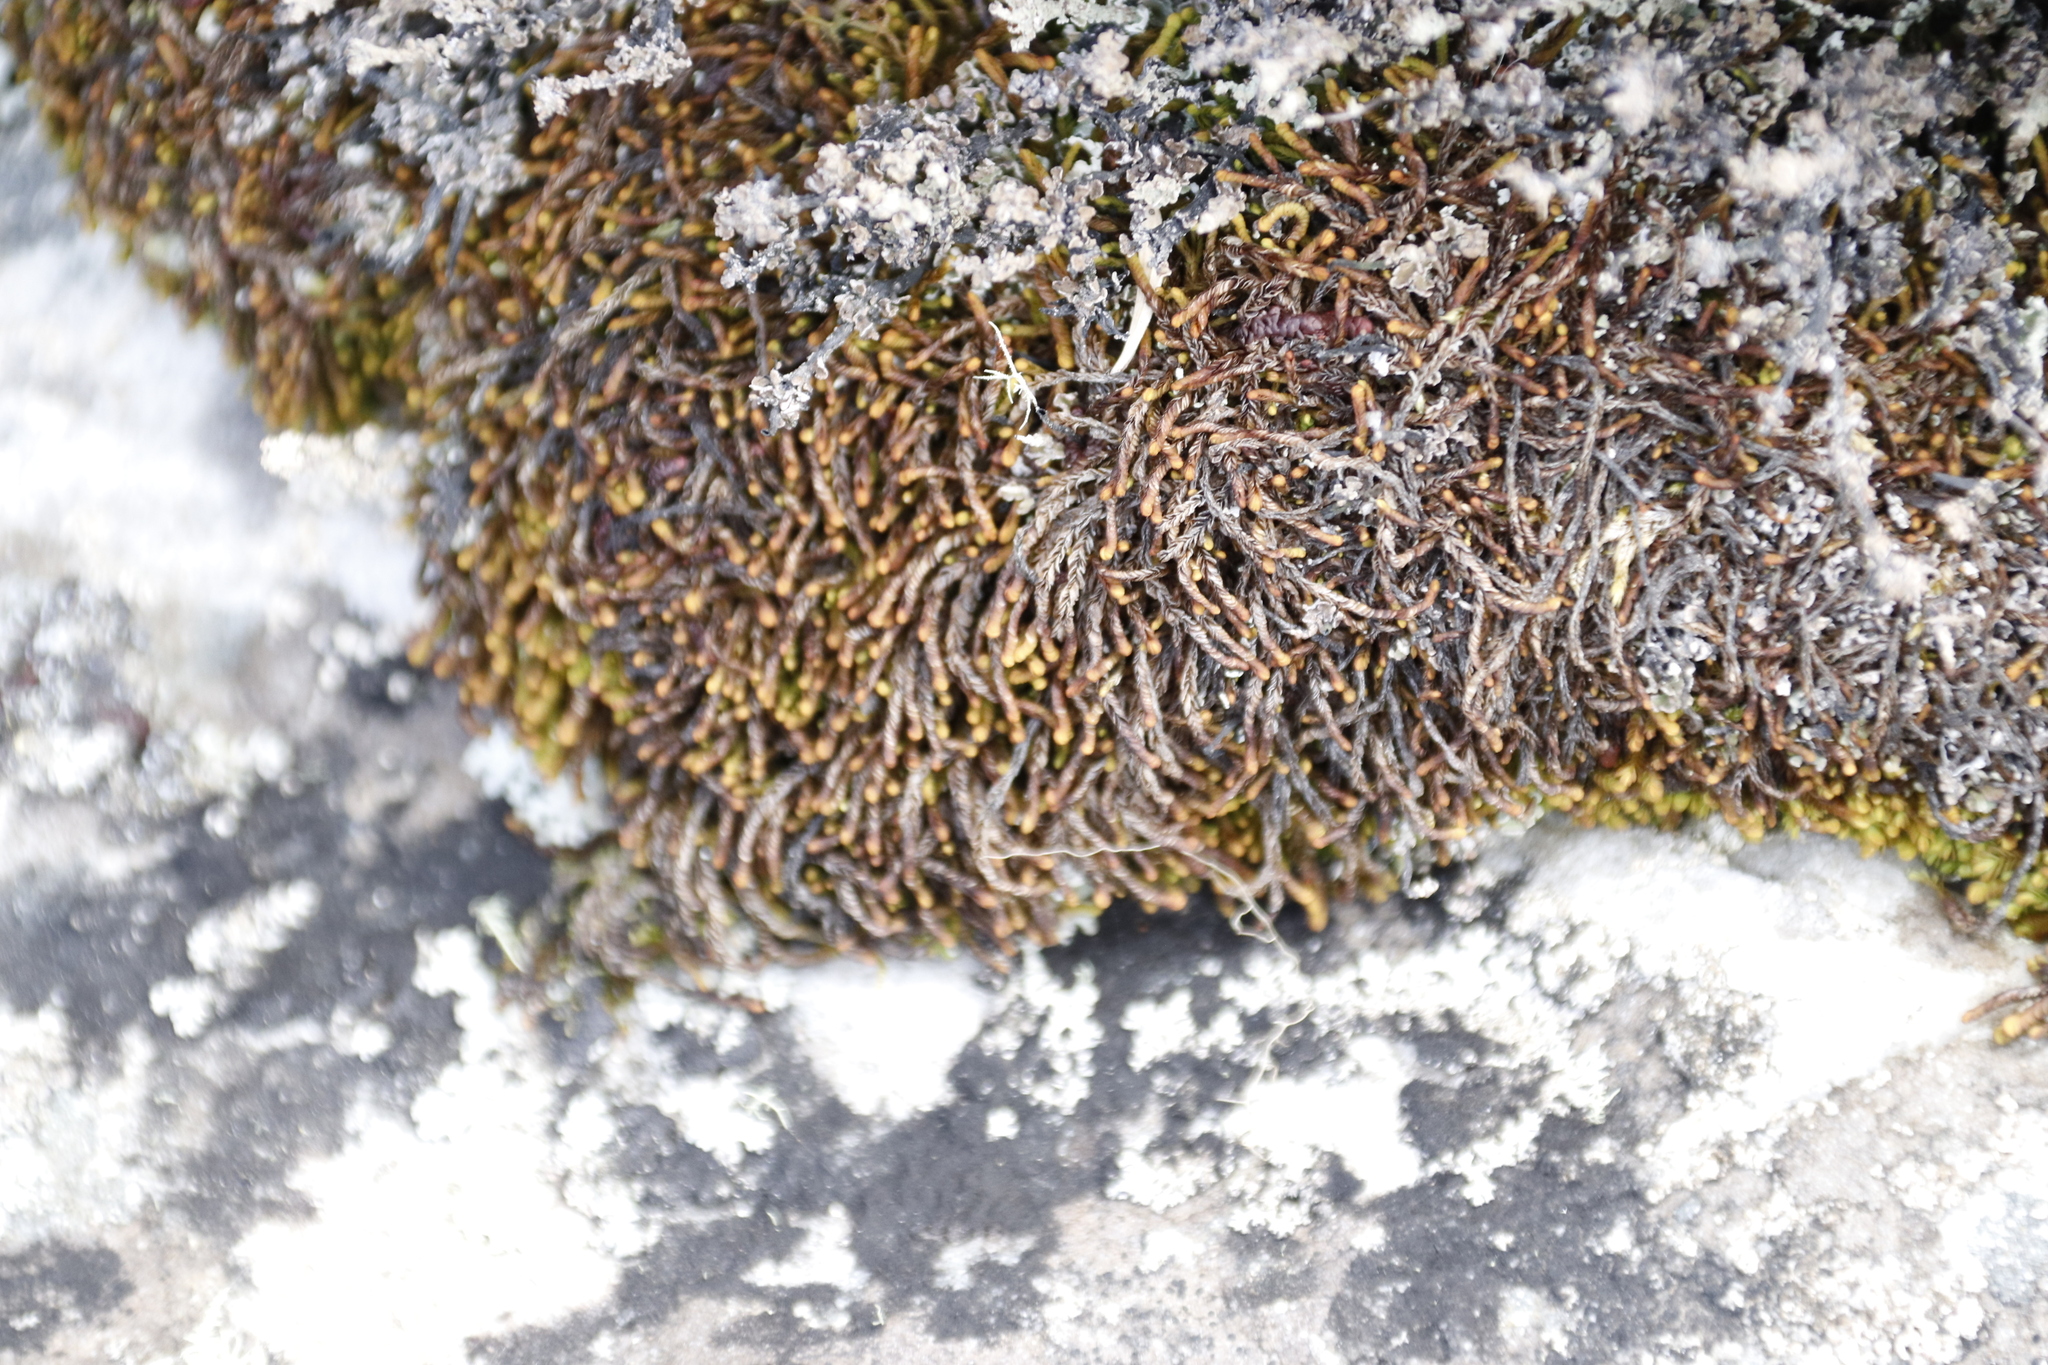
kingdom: Plantae
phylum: Marchantiophyta
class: Jungermanniopsida
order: Jungermanniales
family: Adelanthaceae
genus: Syzygiella
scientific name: Syzygiella colorata
